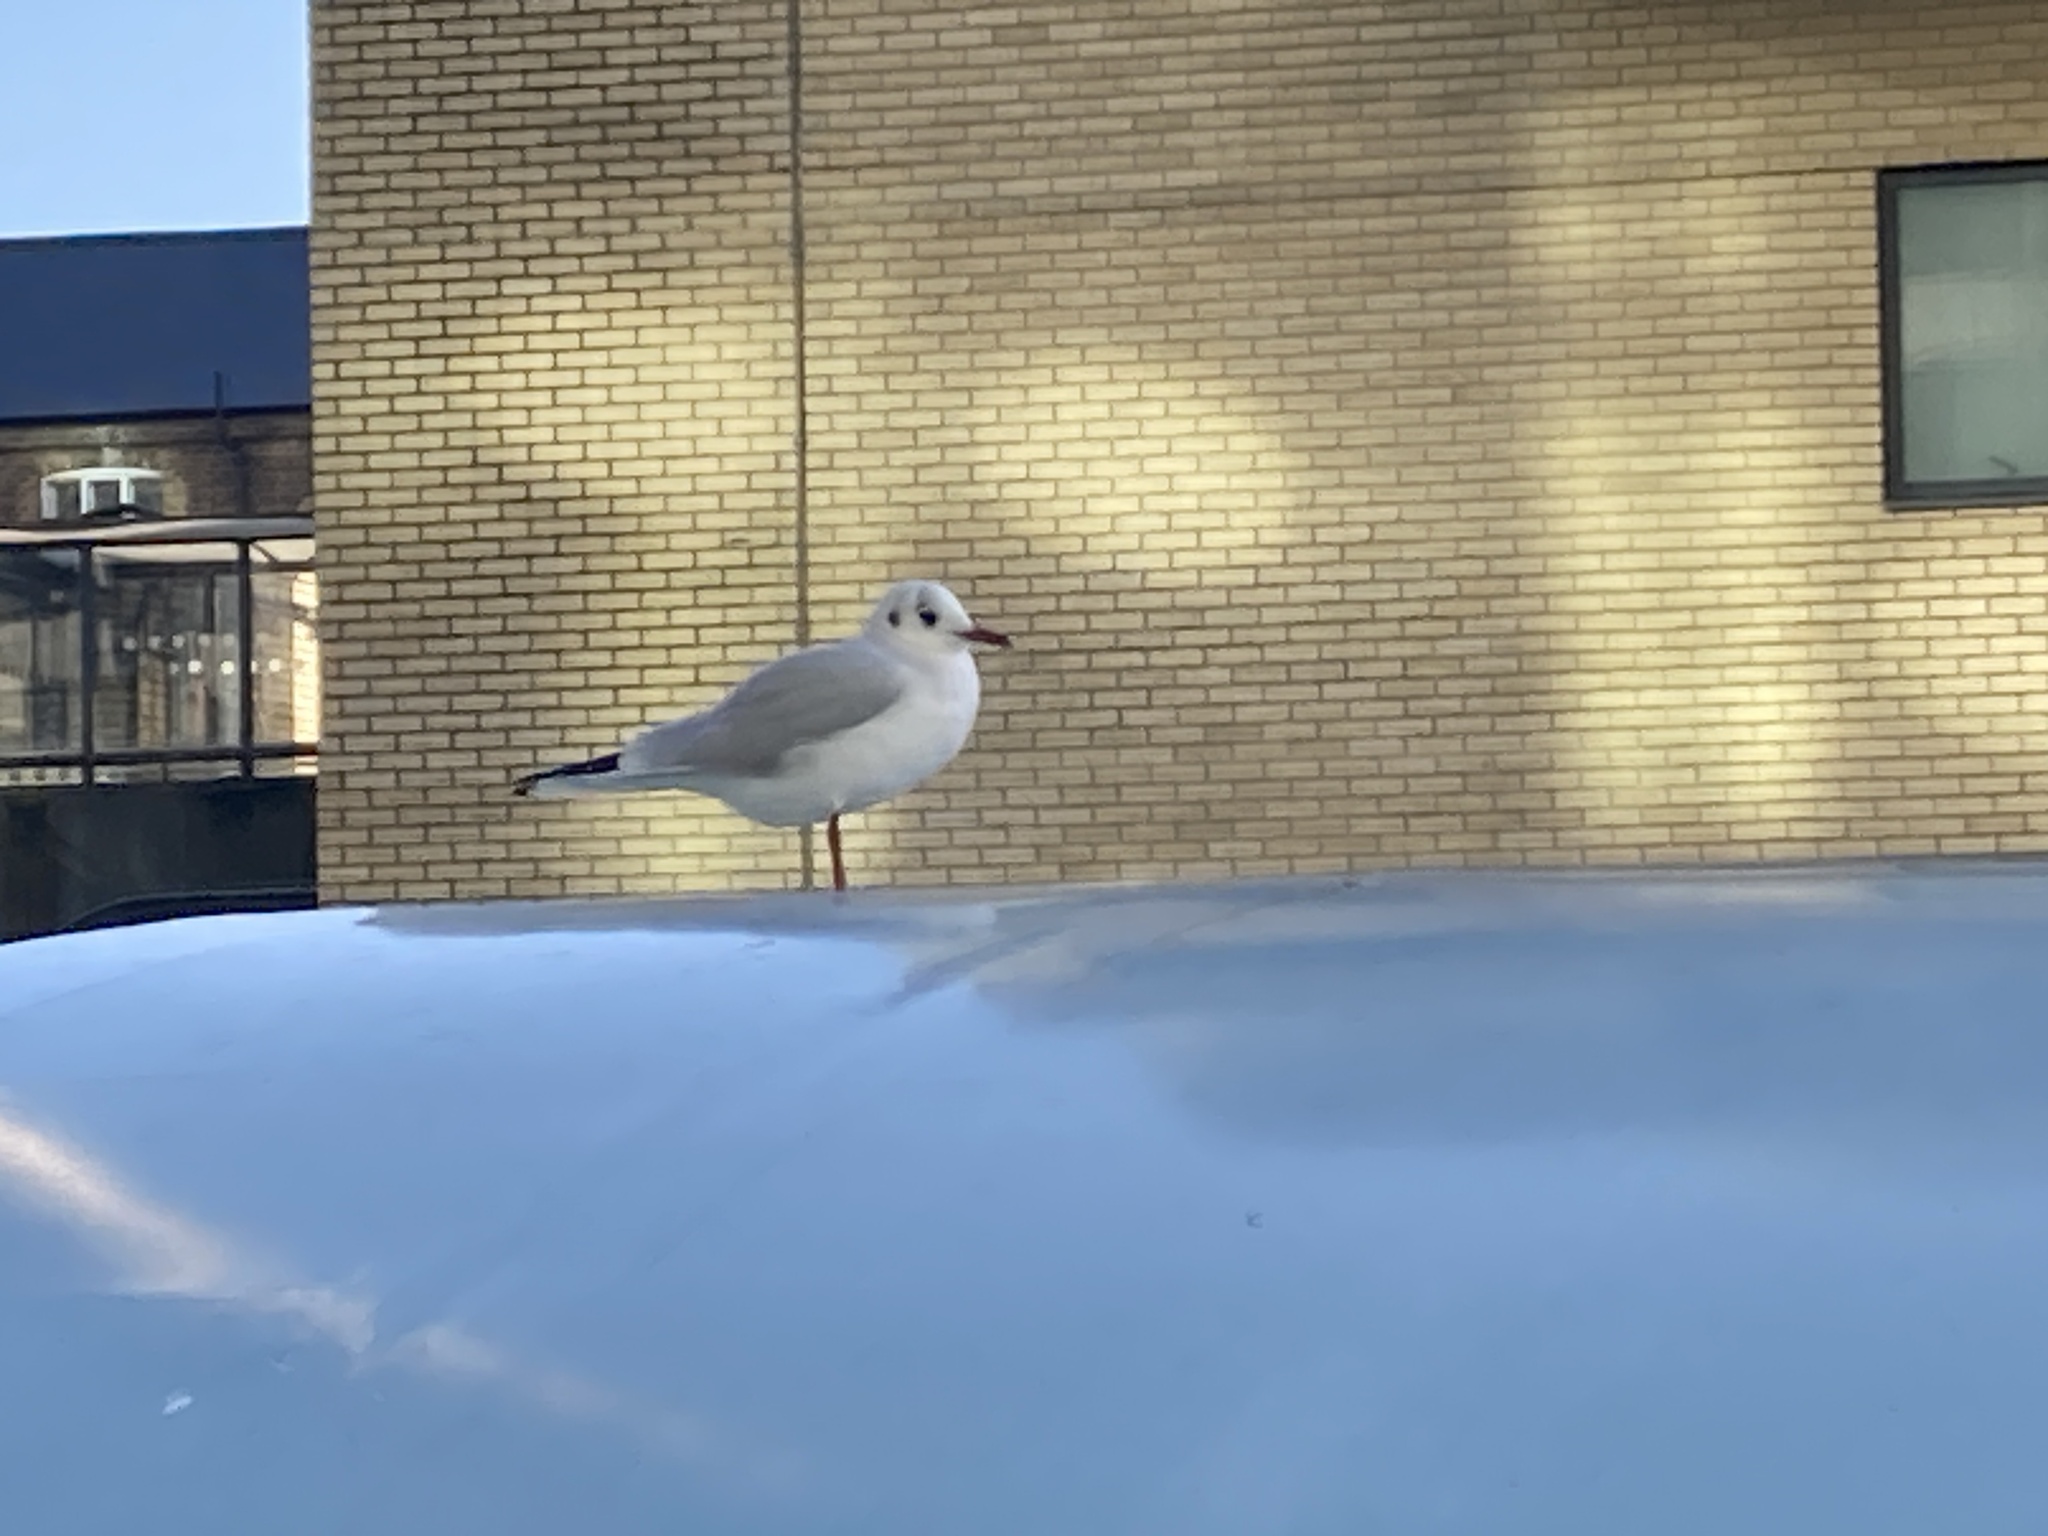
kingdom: Animalia
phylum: Chordata
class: Aves
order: Charadriiformes
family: Laridae
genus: Chroicocephalus
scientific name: Chroicocephalus ridibundus
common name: Black-headed gull
